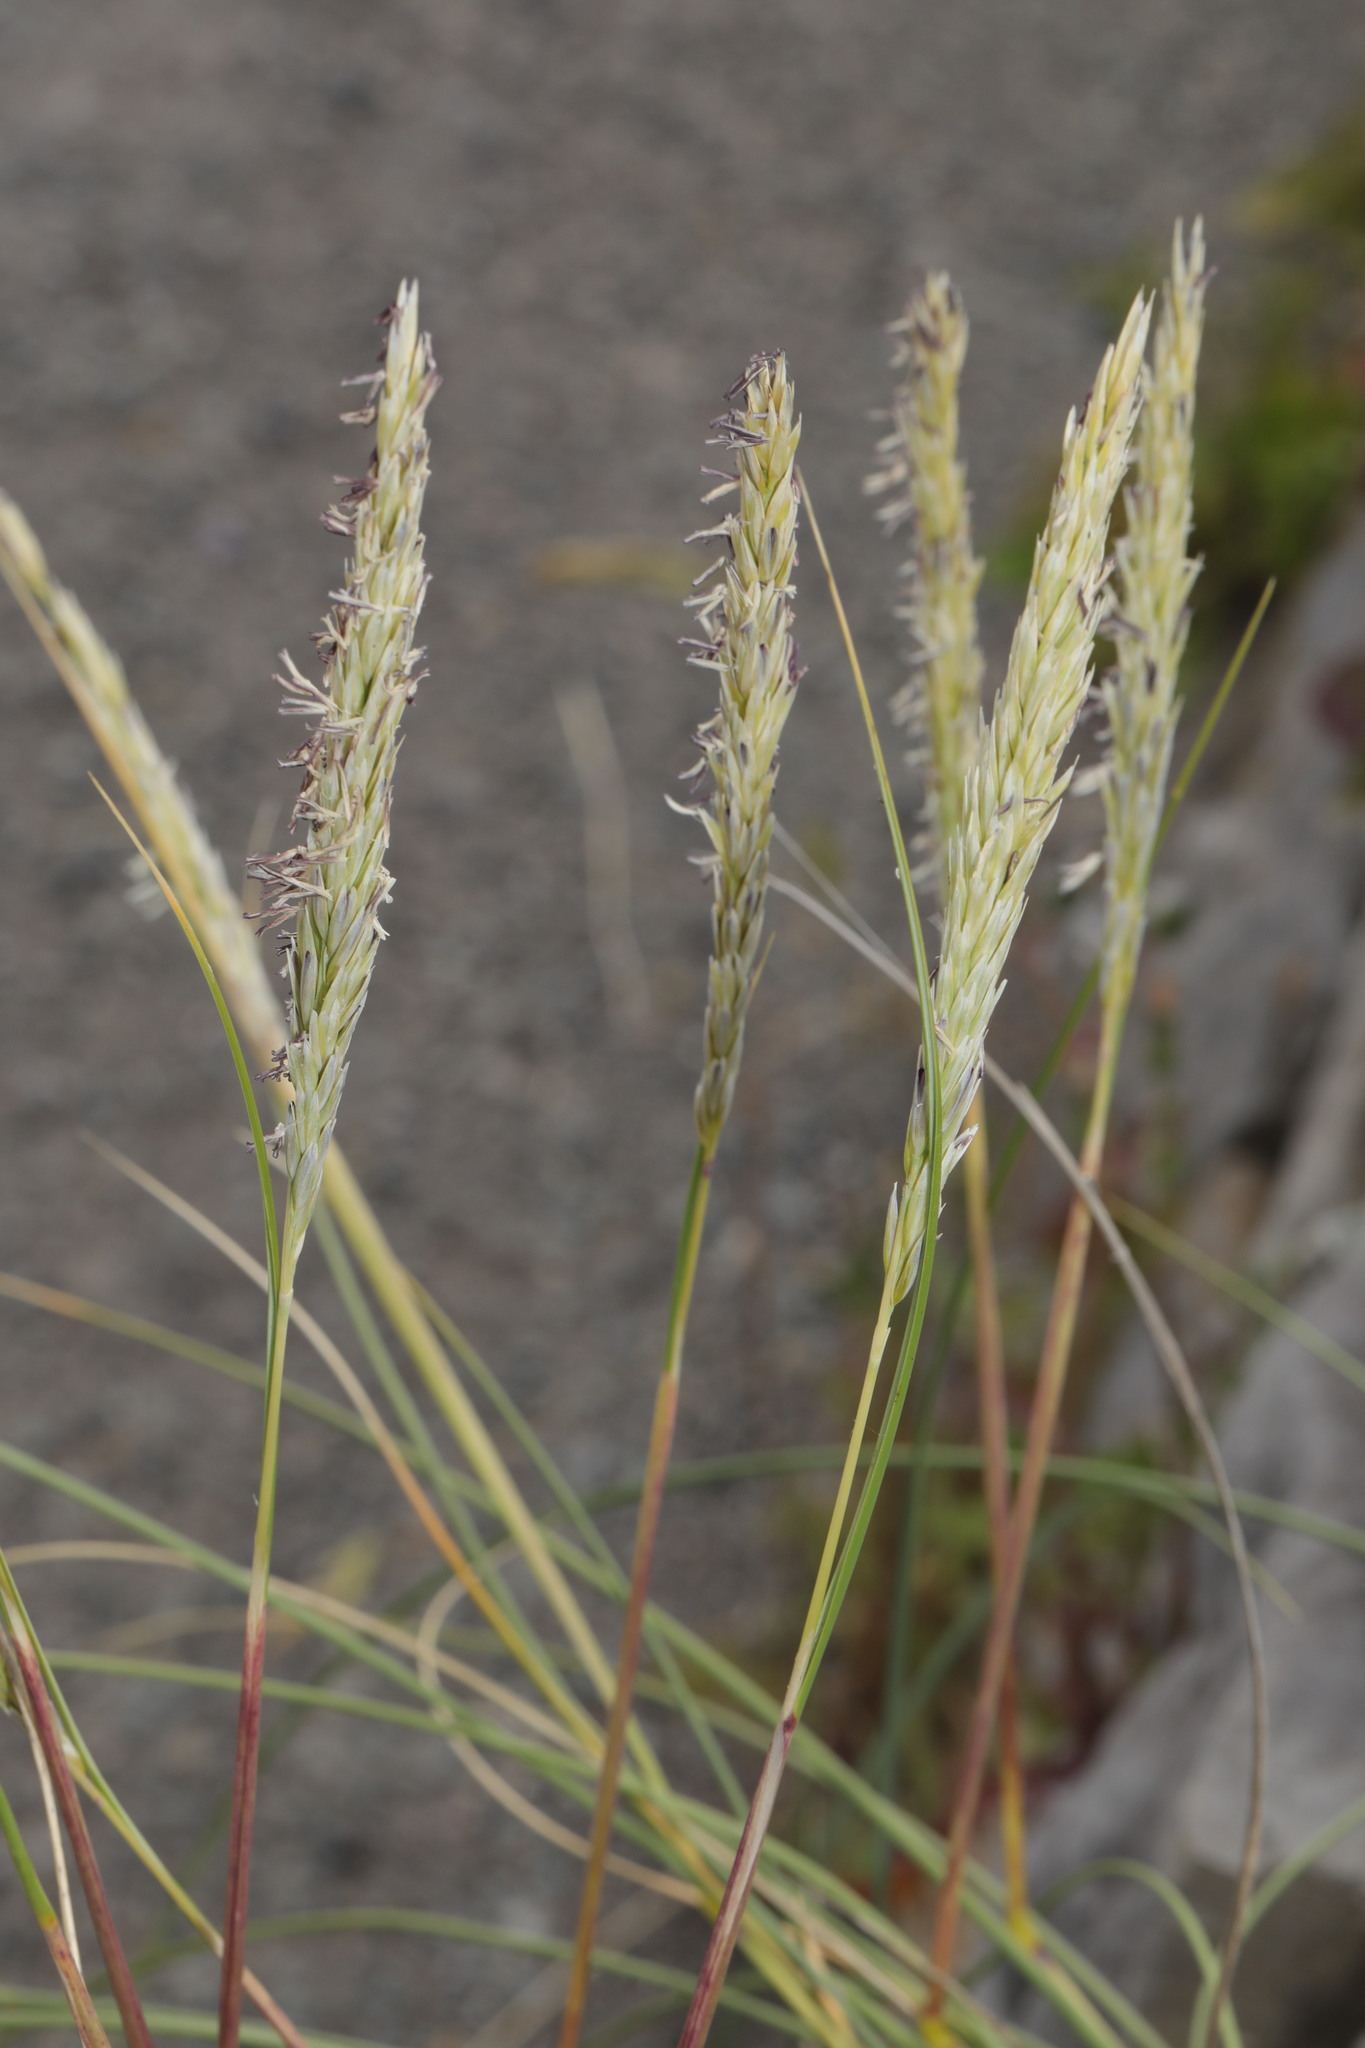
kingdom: Plantae
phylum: Tracheophyta
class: Liliopsida
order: Poales
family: Poaceae
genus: Calamagrostis
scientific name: Calamagrostis arenaria
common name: European beachgrass
